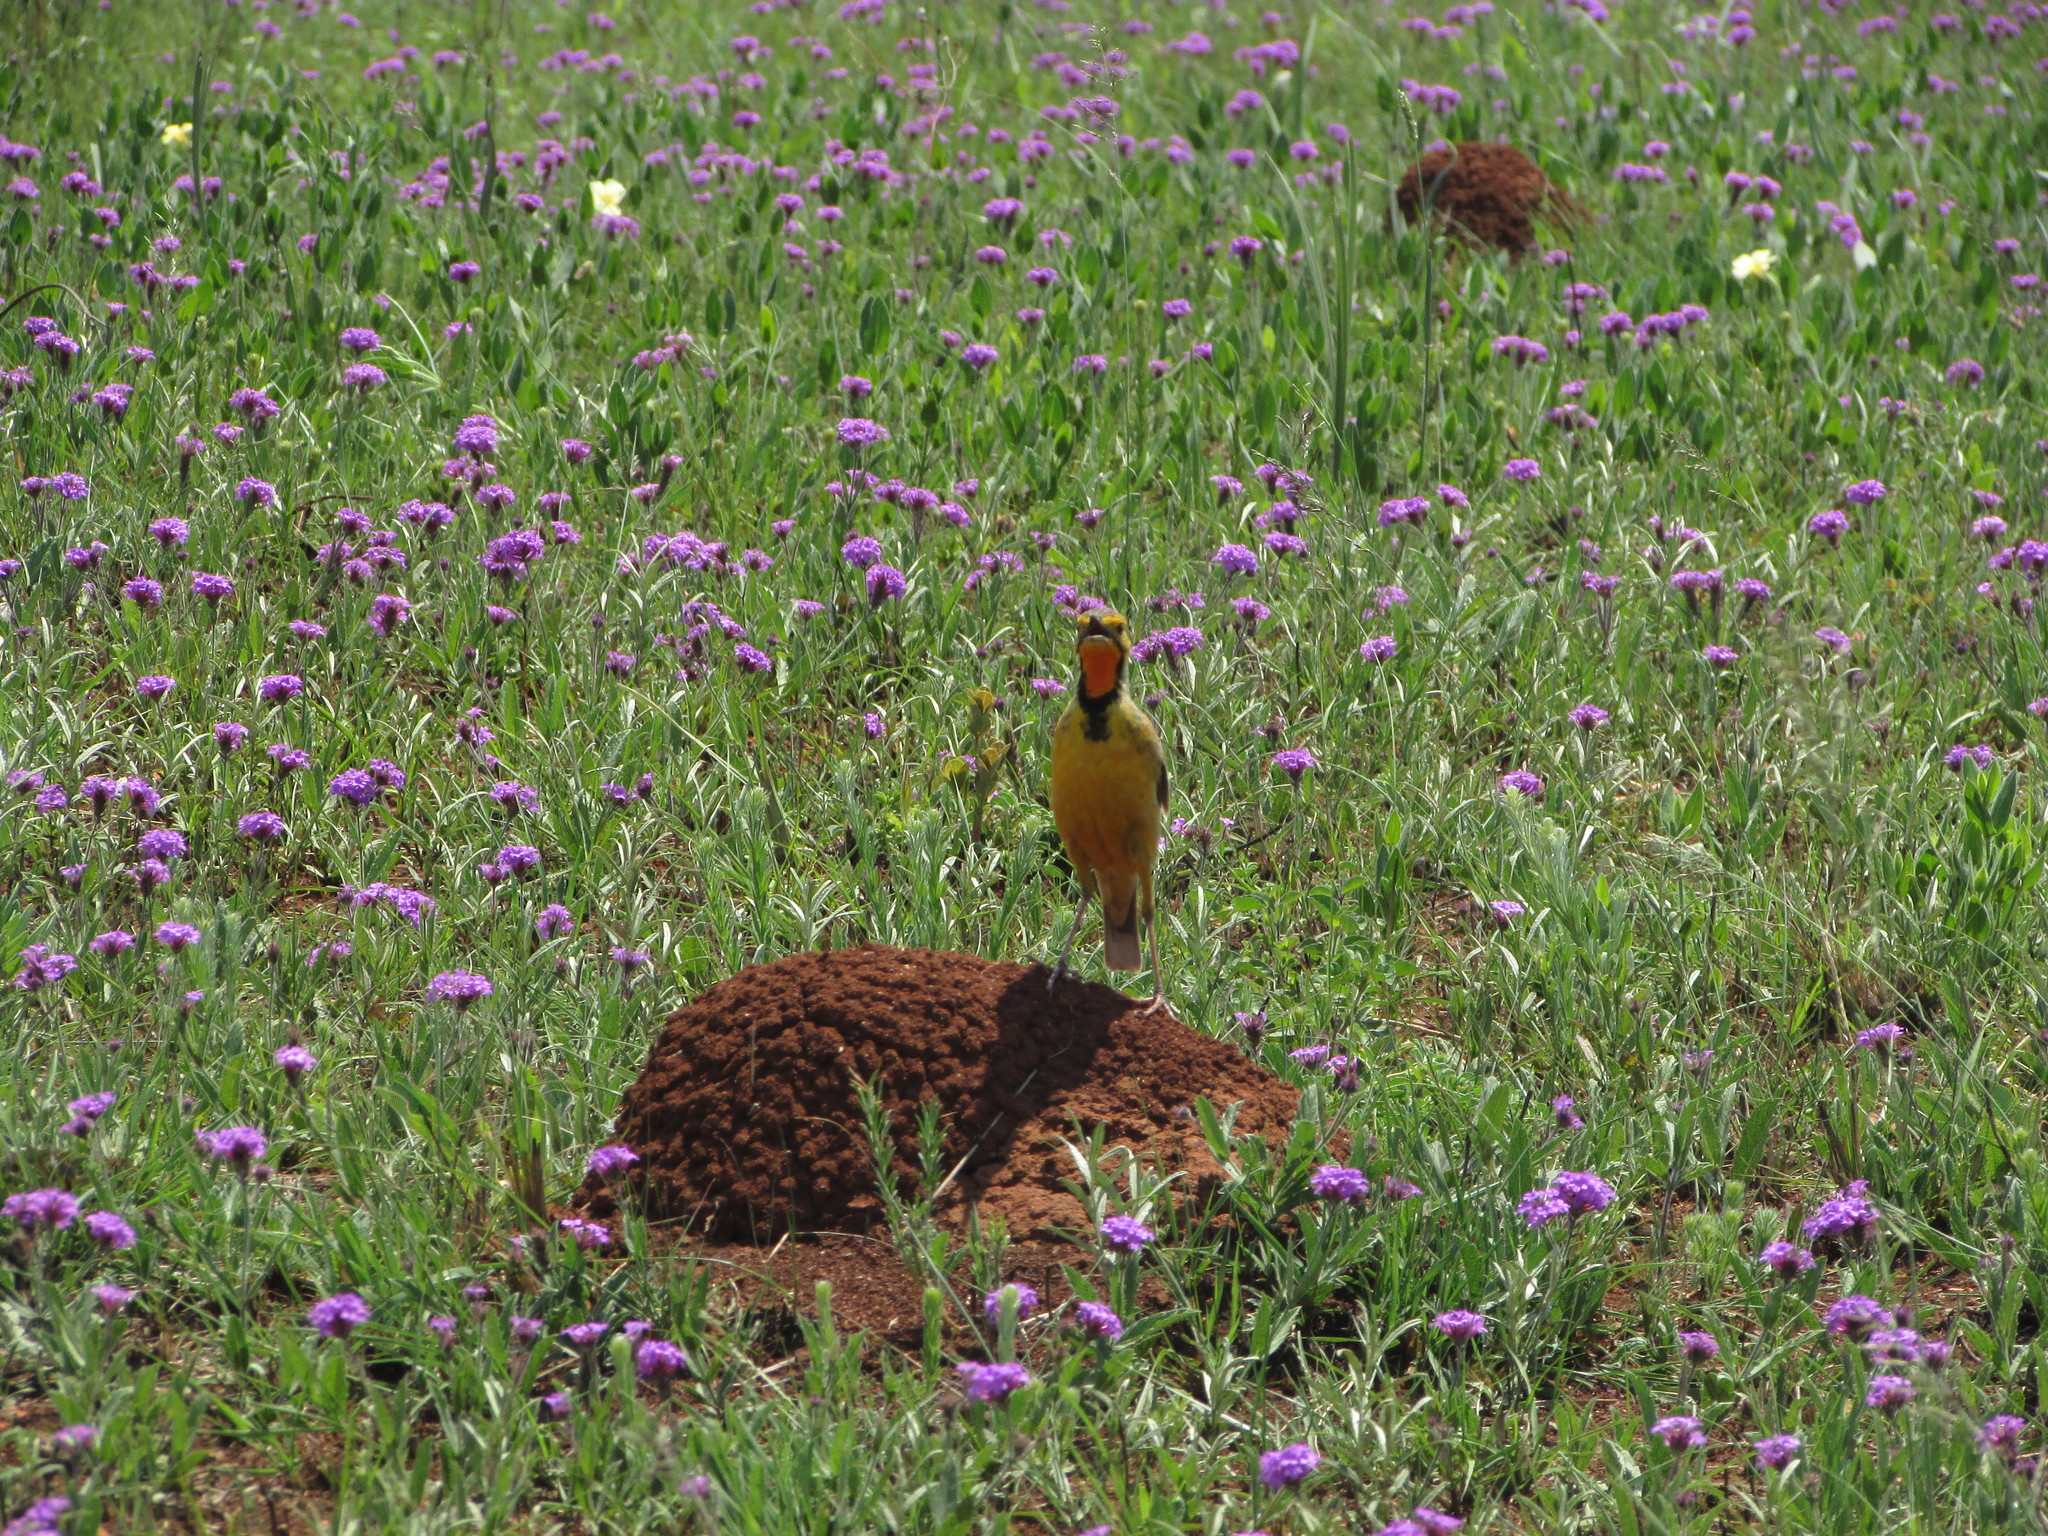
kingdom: Animalia
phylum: Chordata
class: Aves
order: Passeriformes
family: Motacillidae
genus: Macronyx
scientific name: Macronyx capensis
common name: Cape longclaw
